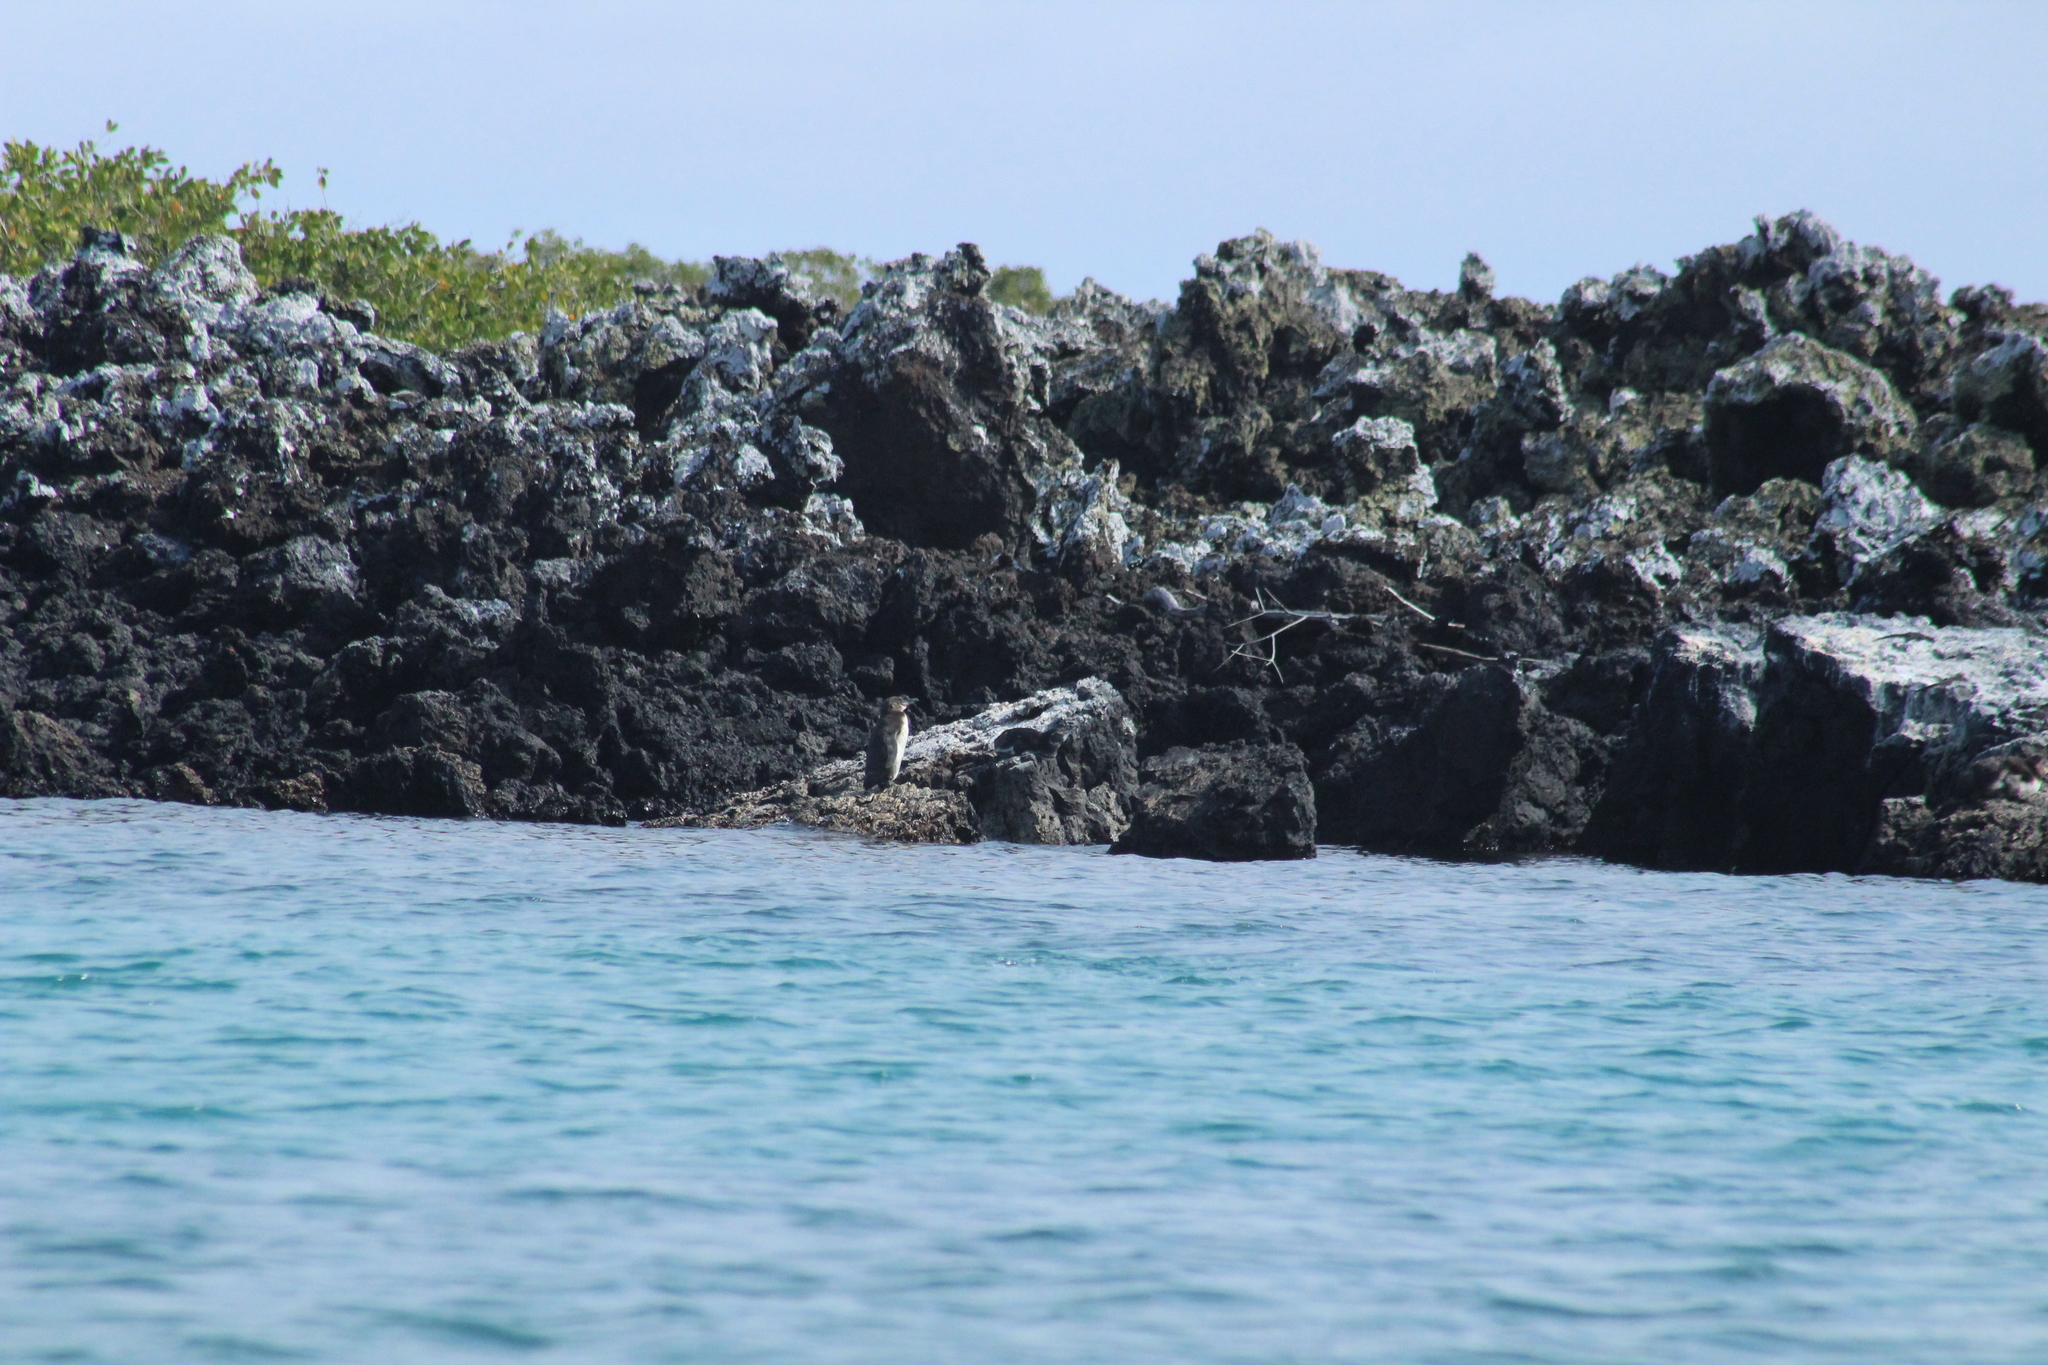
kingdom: Animalia
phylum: Chordata
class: Aves
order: Sphenisciformes
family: Spheniscidae
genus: Spheniscus
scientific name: Spheniscus mendiculus
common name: Galapagos penguin
